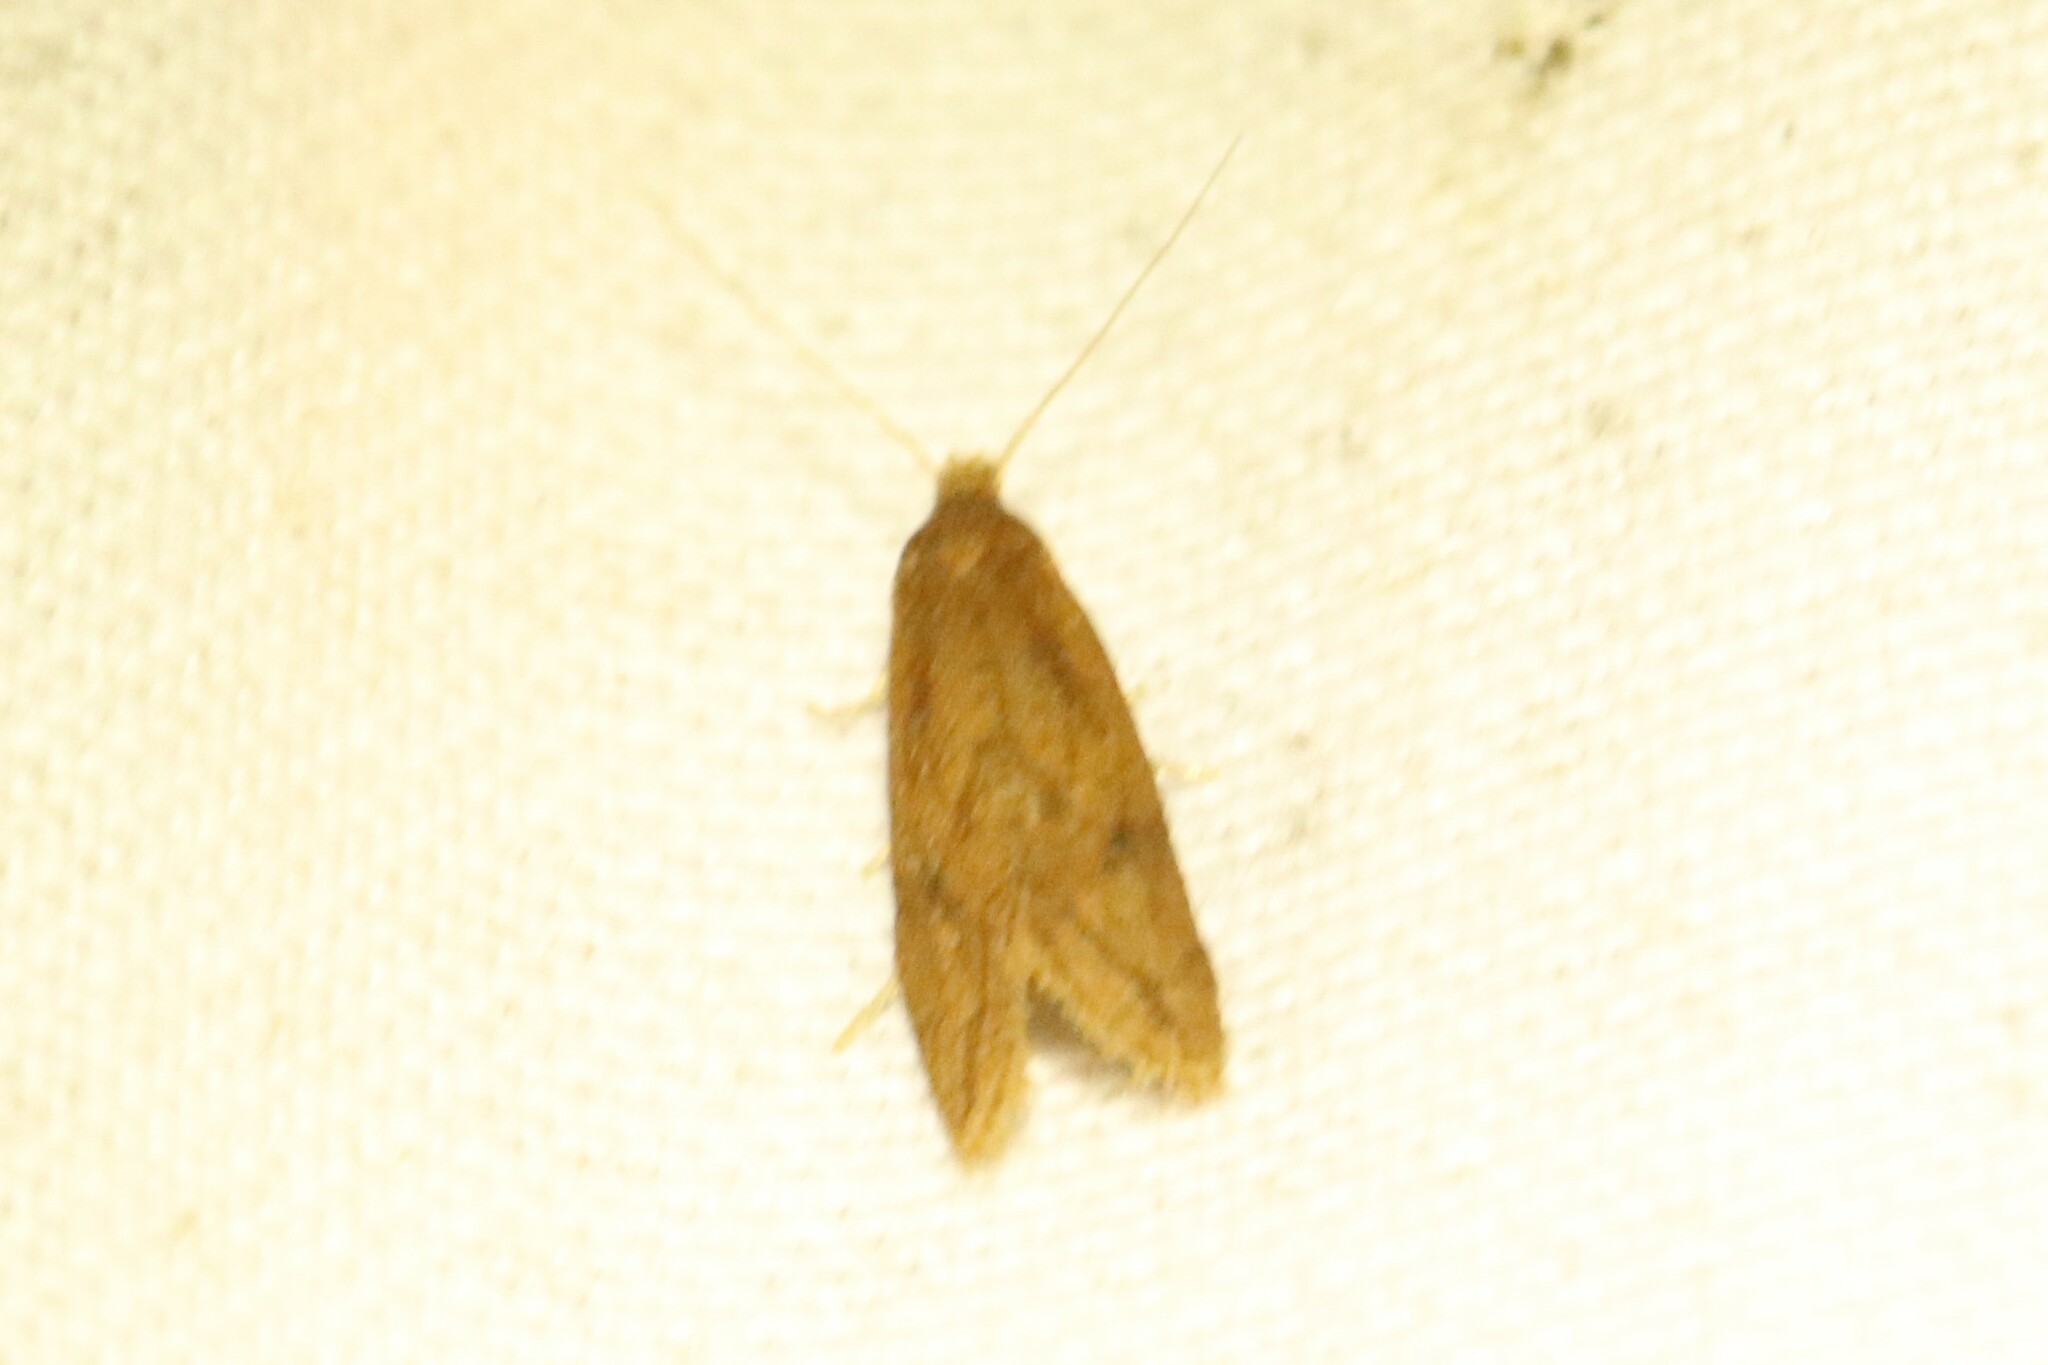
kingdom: Animalia
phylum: Arthropoda
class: Insecta
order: Lepidoptera
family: Tortricidae
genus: Aethes
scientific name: Aethes biscana
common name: Reddish aethes
